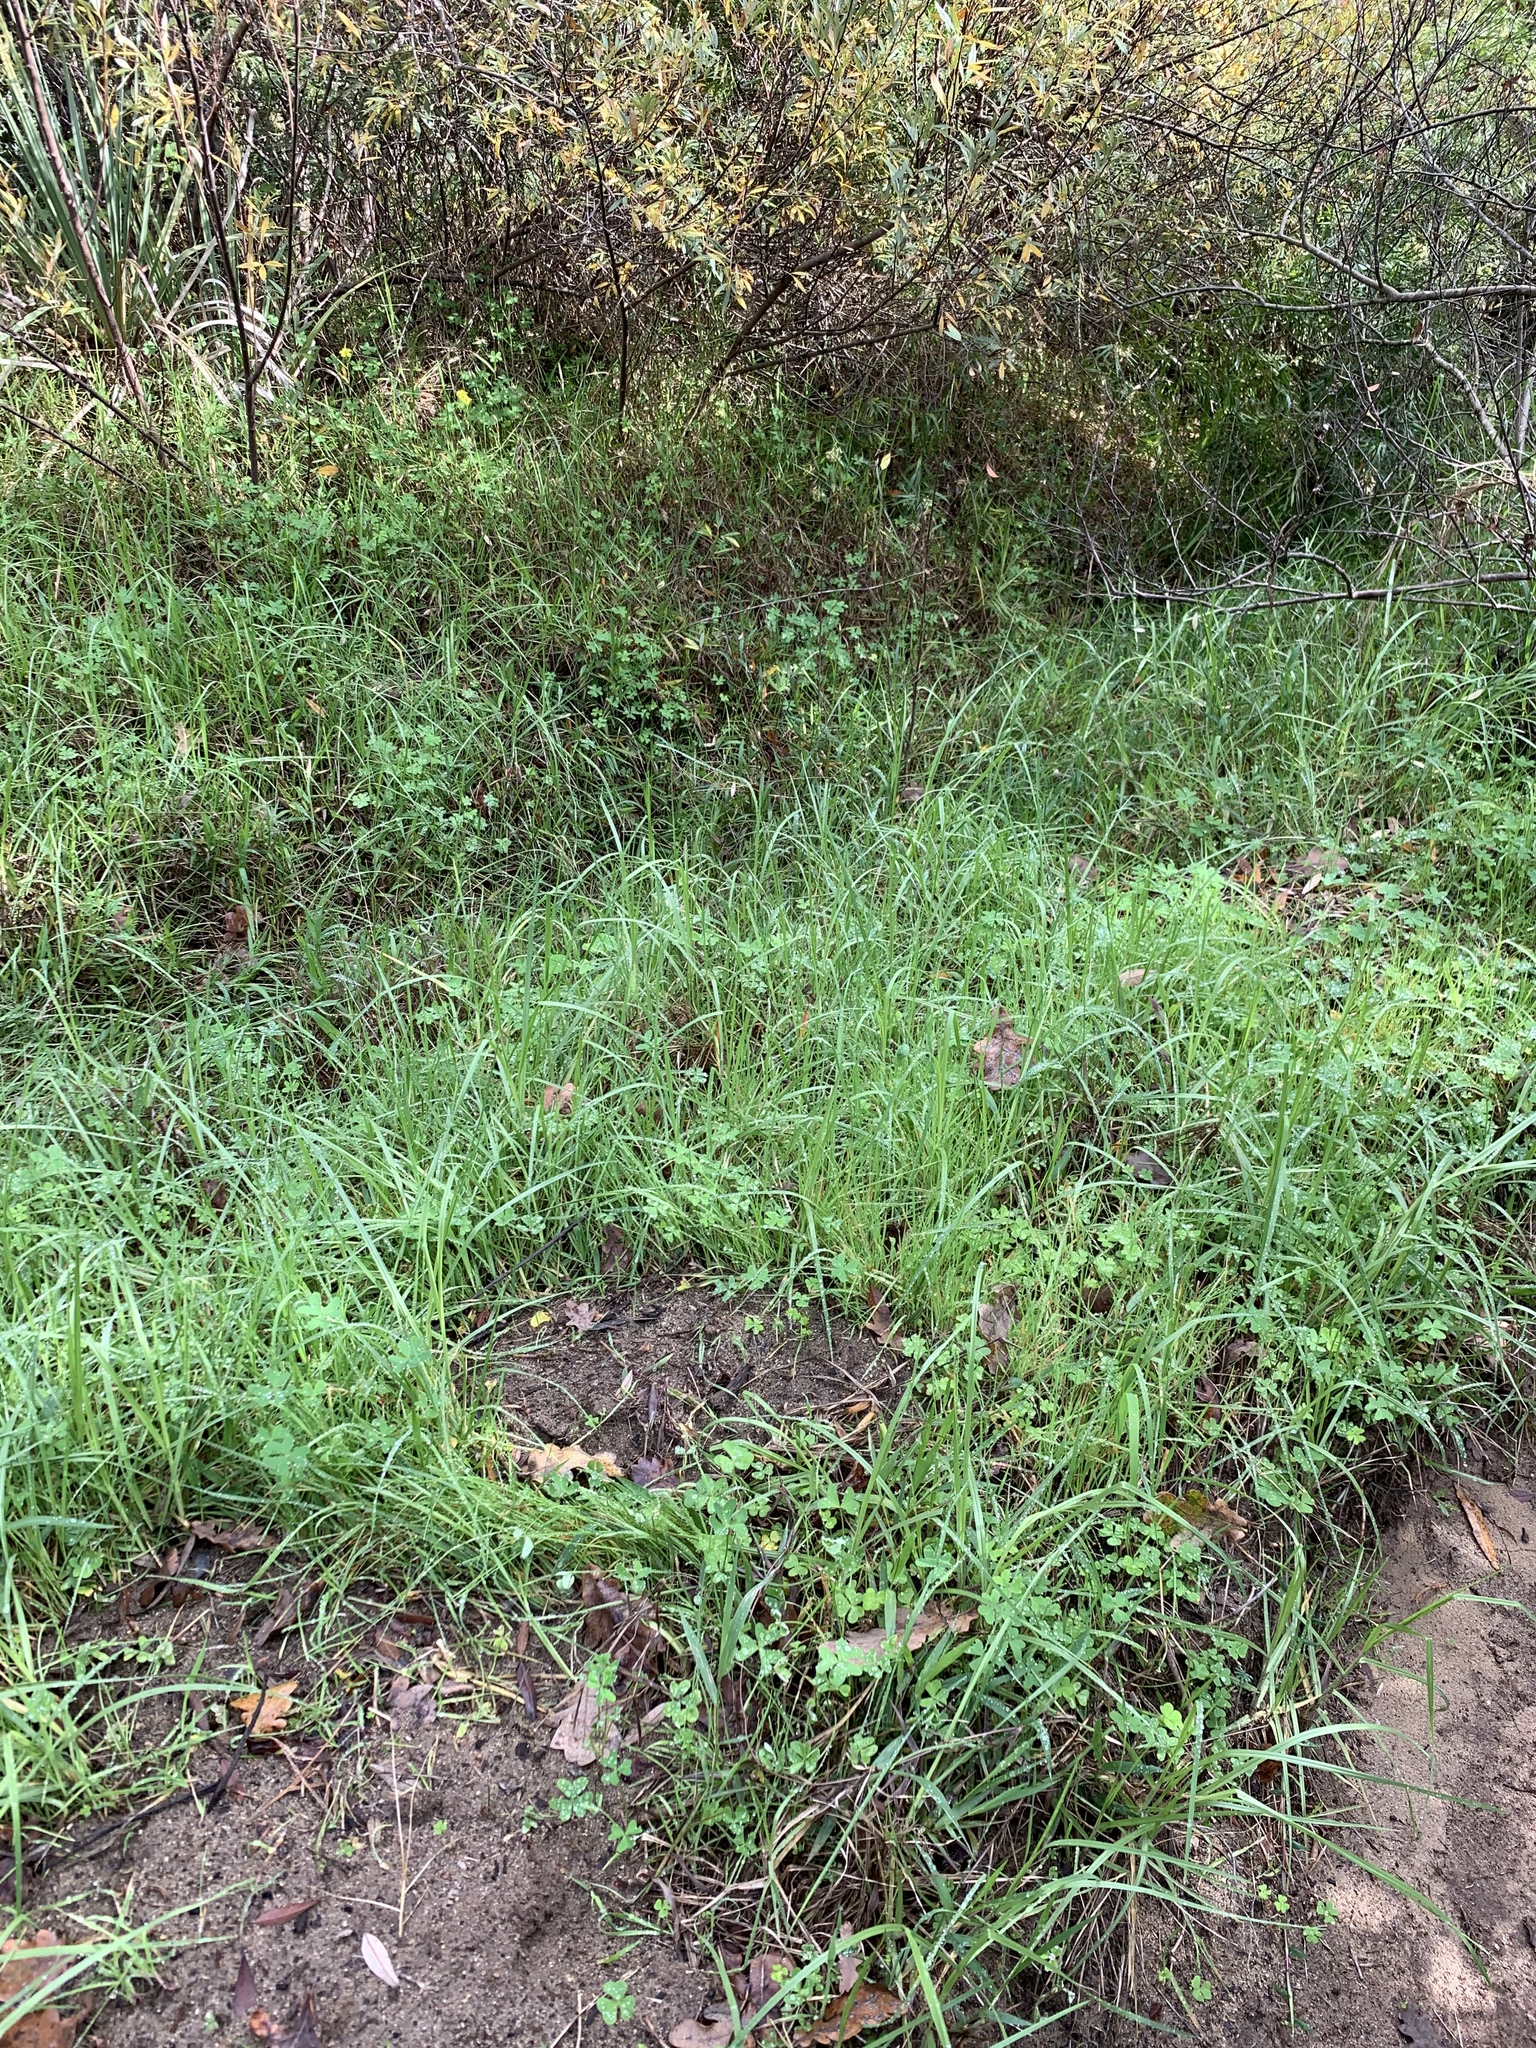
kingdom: Plantae
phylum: Tracheophyta
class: Liliopsida
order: Poales
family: Poaceae
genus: Cenchrus
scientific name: Cenchrus clandestinus
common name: Kikuyugrass
